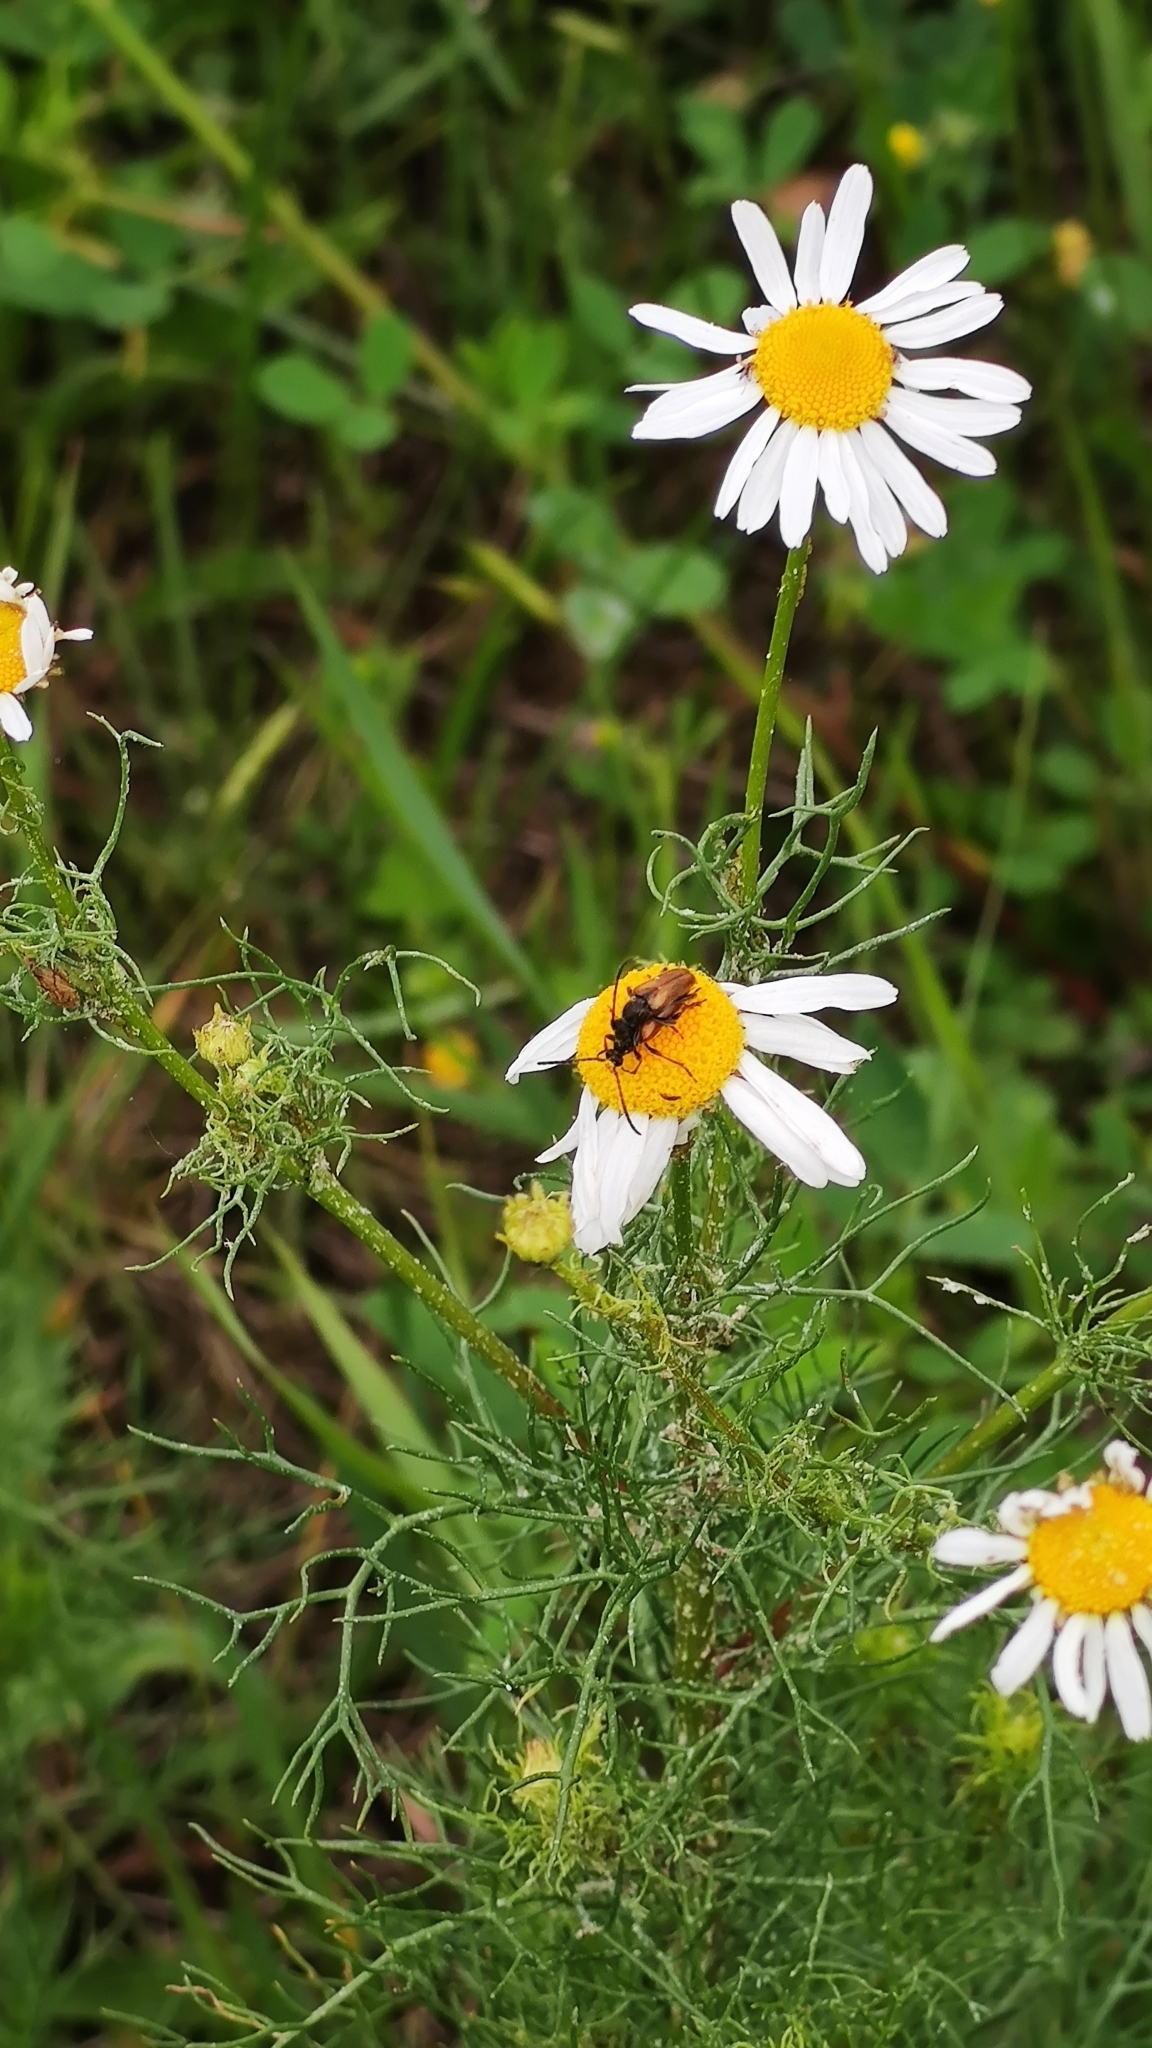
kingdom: Animalia
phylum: Arthropoda
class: Insecta
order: Coleoptera
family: Cerambycidae
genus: Pseudovadonia
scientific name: Pseudovadonia livida
